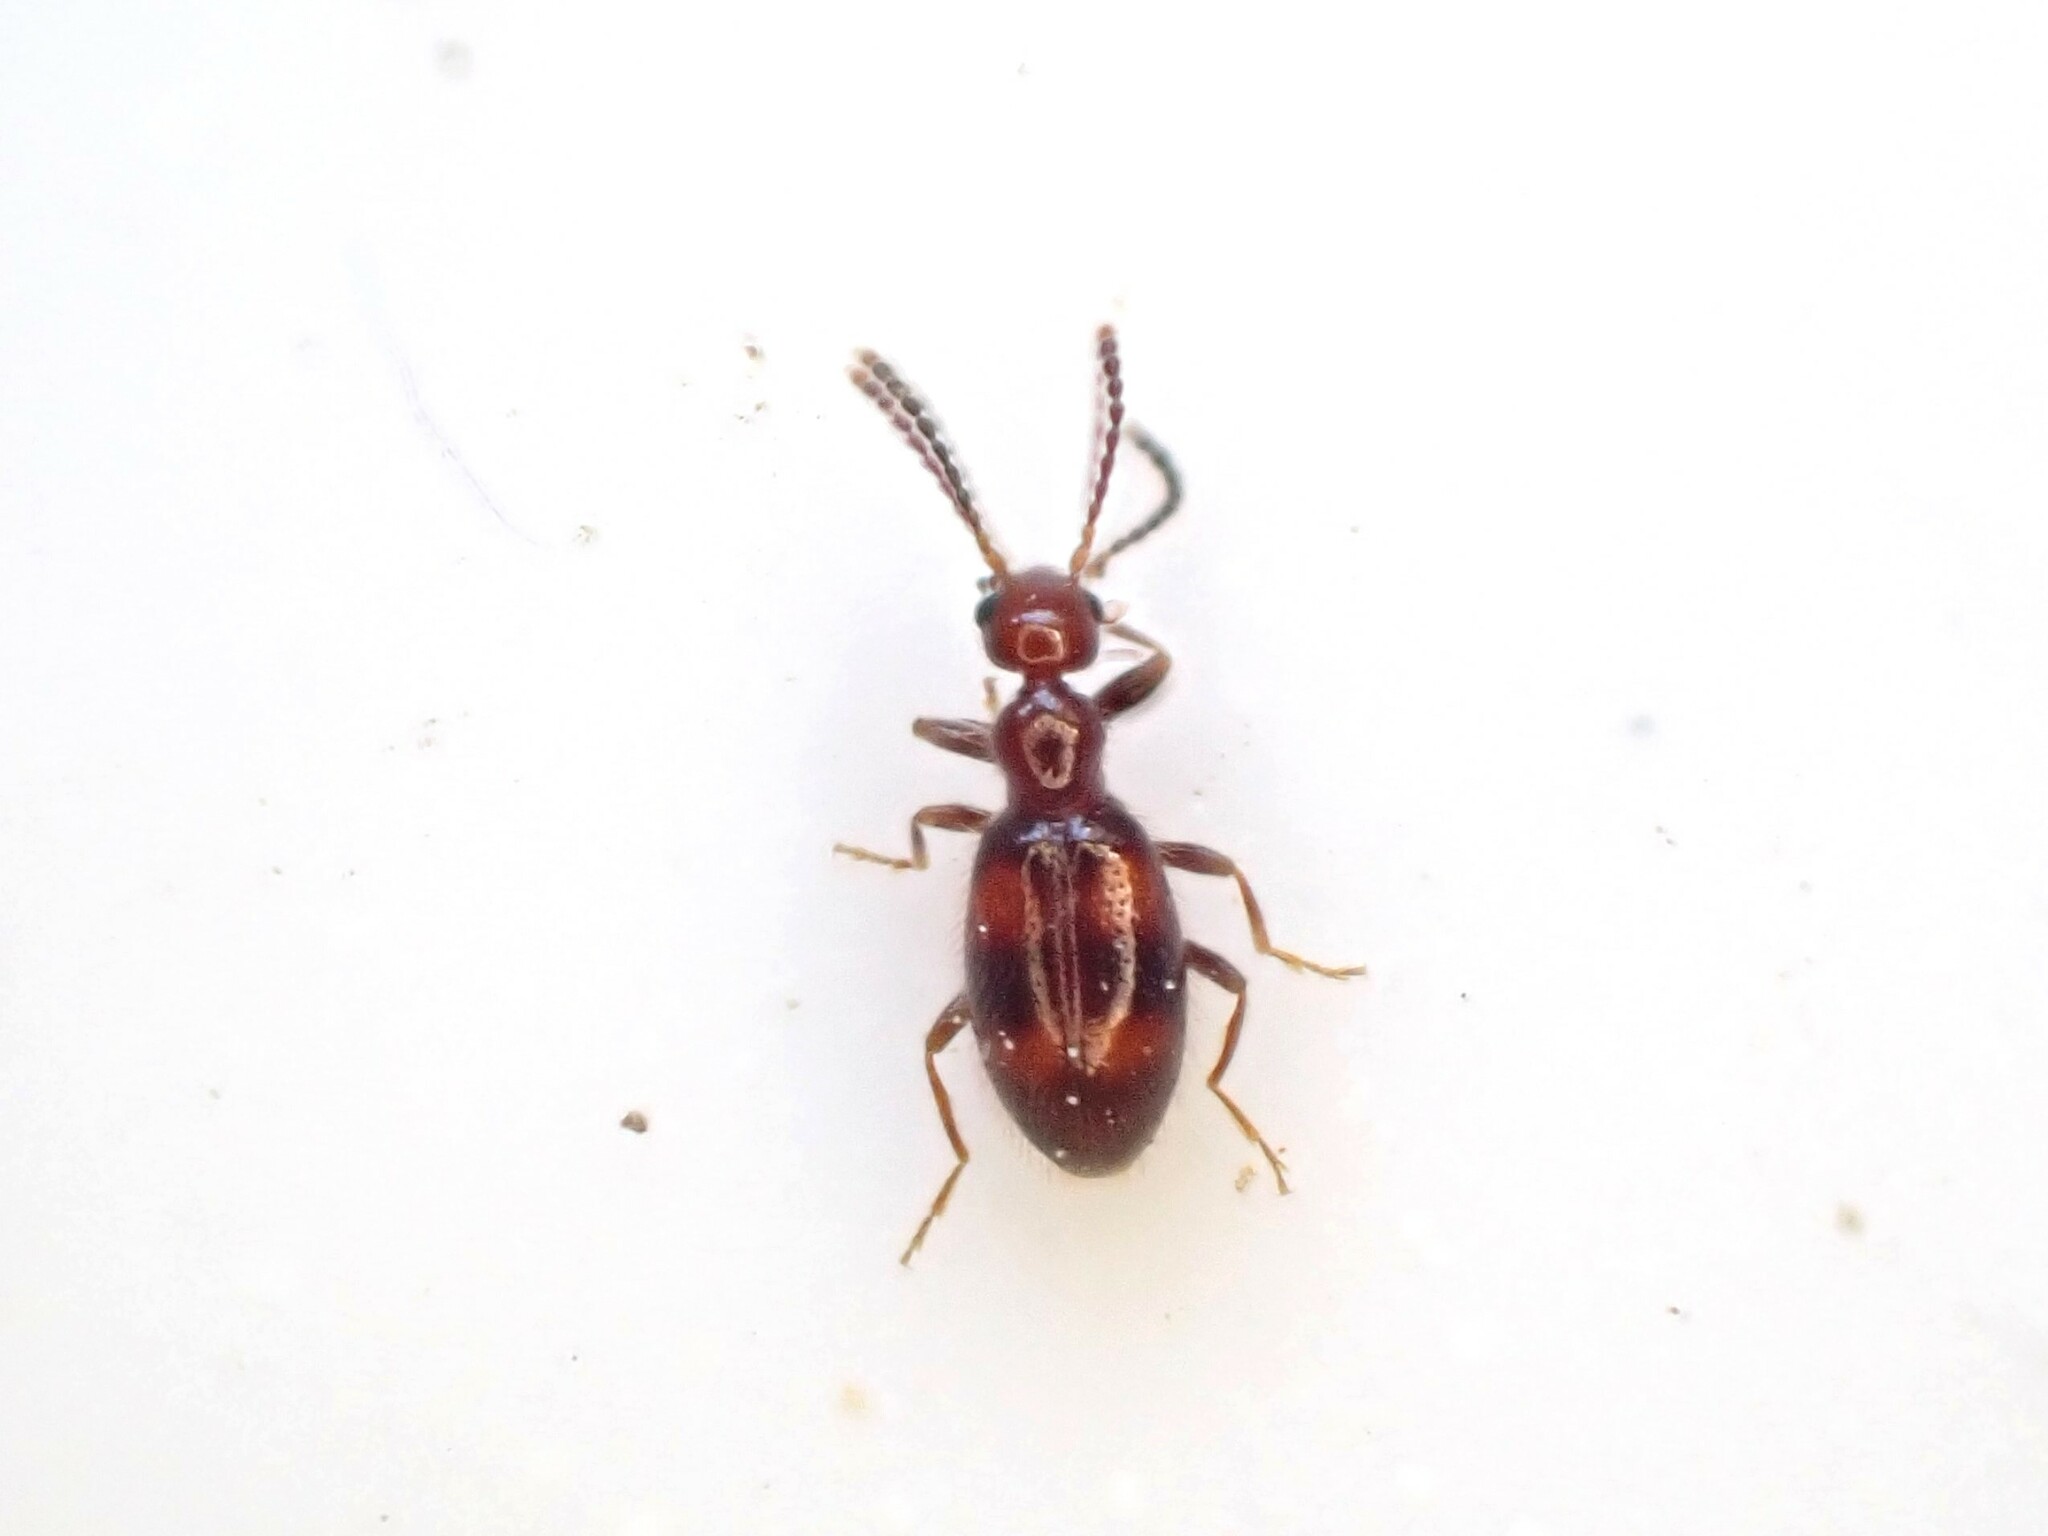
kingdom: Animalia
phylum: Arthropoda
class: Insecta
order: Coleoptera
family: Anthicidae
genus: Sapintus
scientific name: Sapintus aucklandensis
